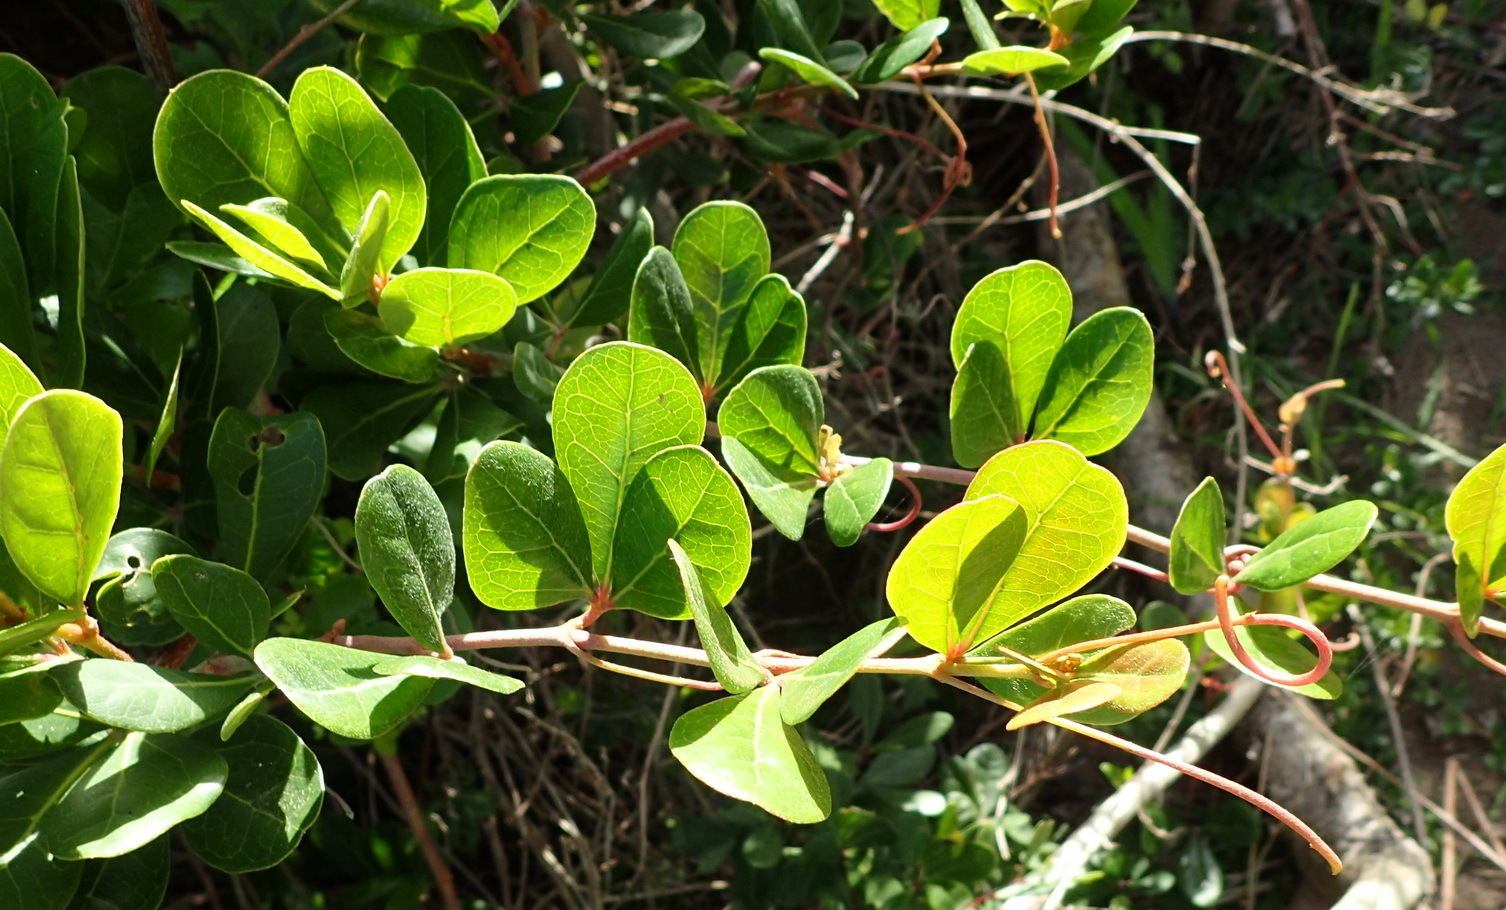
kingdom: Plantae
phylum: Tracheophyta
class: Magnoliopsida
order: Vitales
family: Vitaceae
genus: Rhoicissus
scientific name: Rhoicissus digitata
